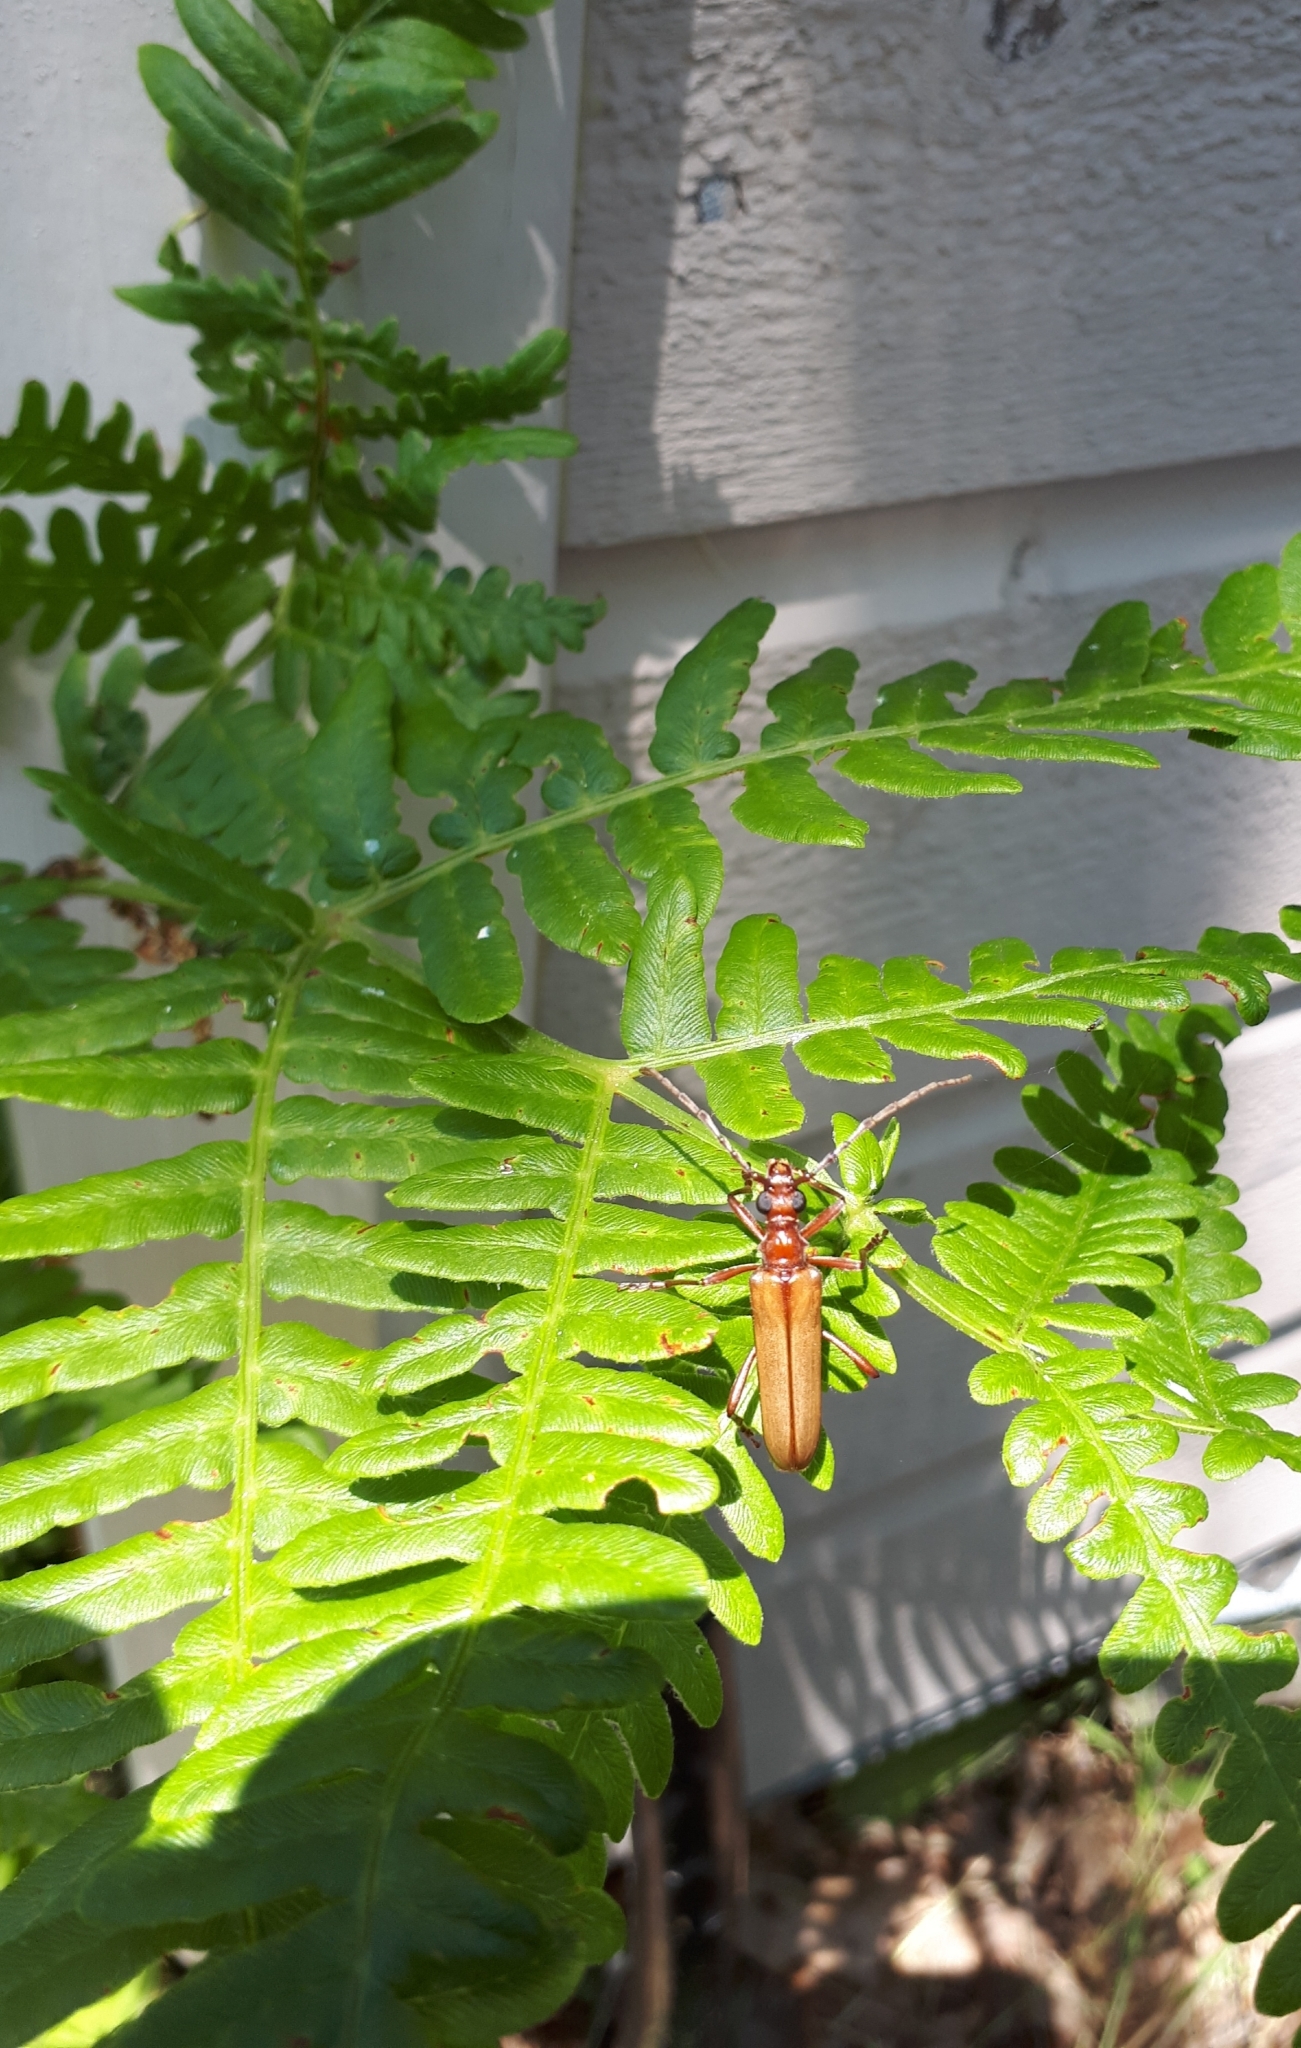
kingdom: Animalia
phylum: Arthropoda
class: Insecta
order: Coleoptera
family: Cerambycidae
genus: Centrodera
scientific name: Centrodera decolorata
